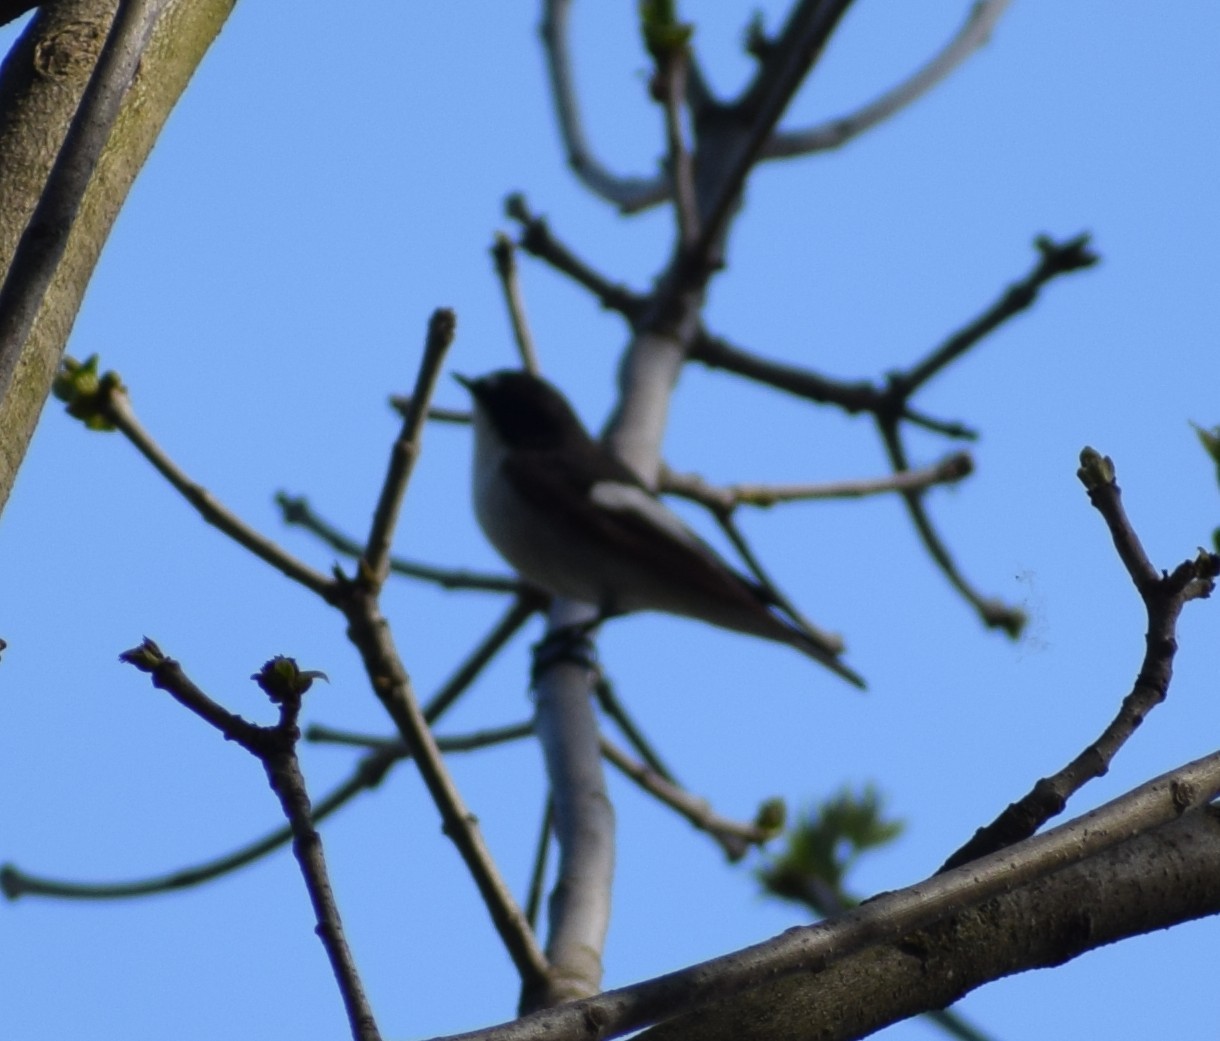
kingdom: Animalia
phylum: Chordata
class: Aves
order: Passeriformes
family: Muscicapidae
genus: Ficedula
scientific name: Ficedula hypoleuca
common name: European pied flycatcher
